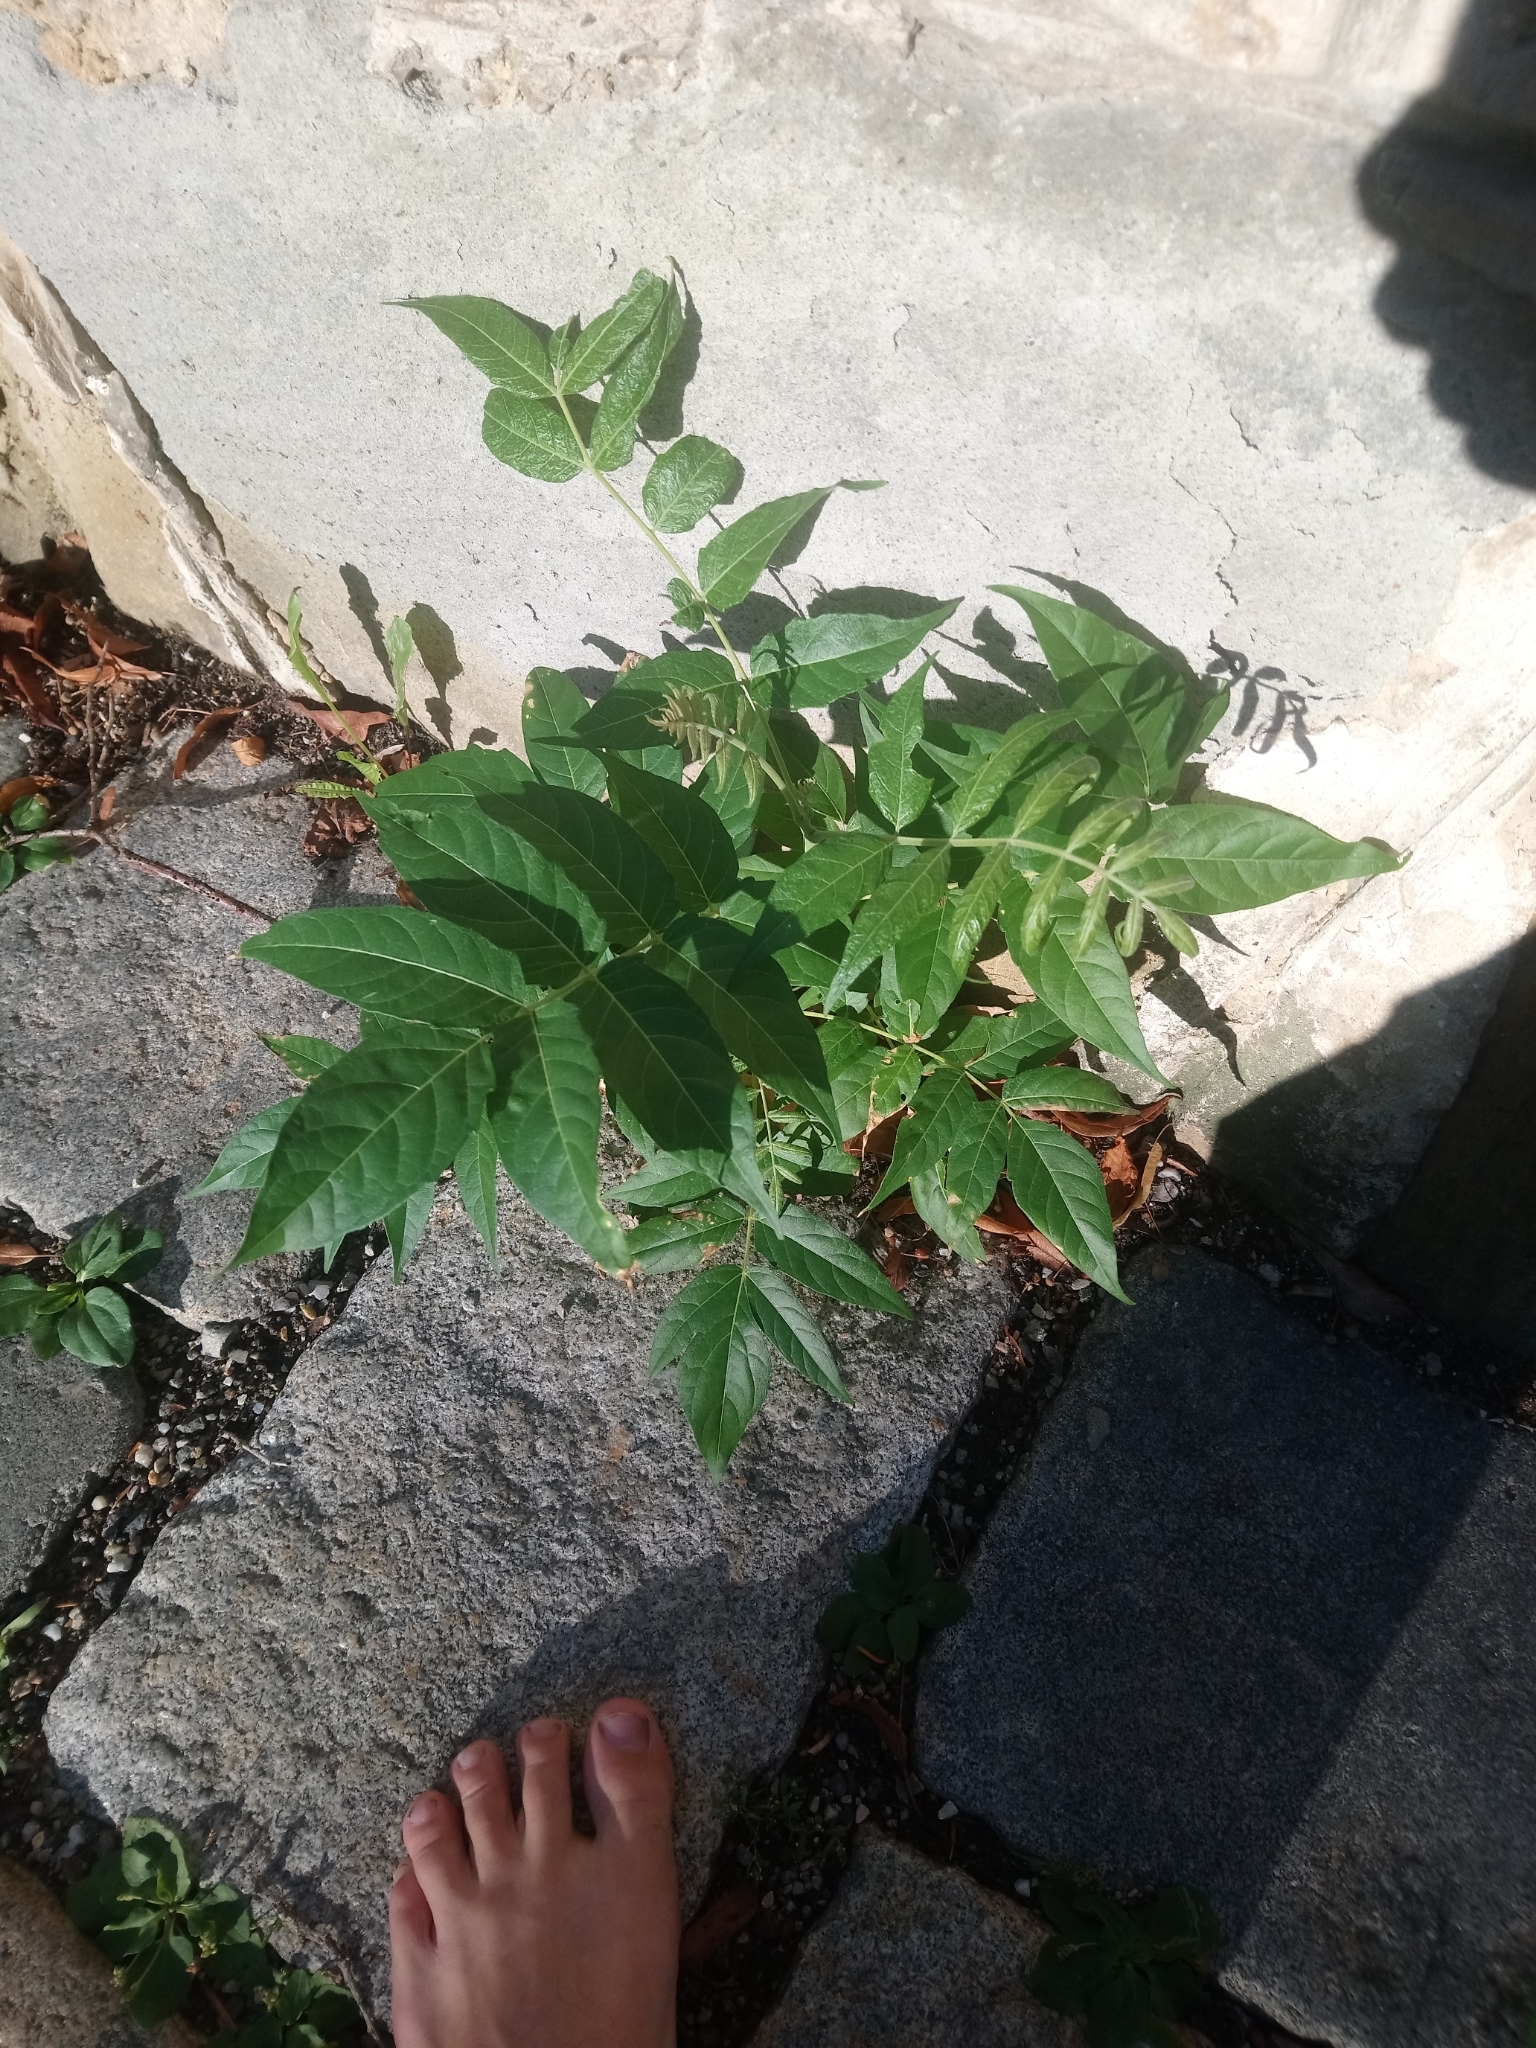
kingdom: Plantae
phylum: Tracheophyta
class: Magnoliopsida
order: Sapindales
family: Simaroubaceae
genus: Ailanthus
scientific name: Ailanthus altissima
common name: Tree-of-heaven
